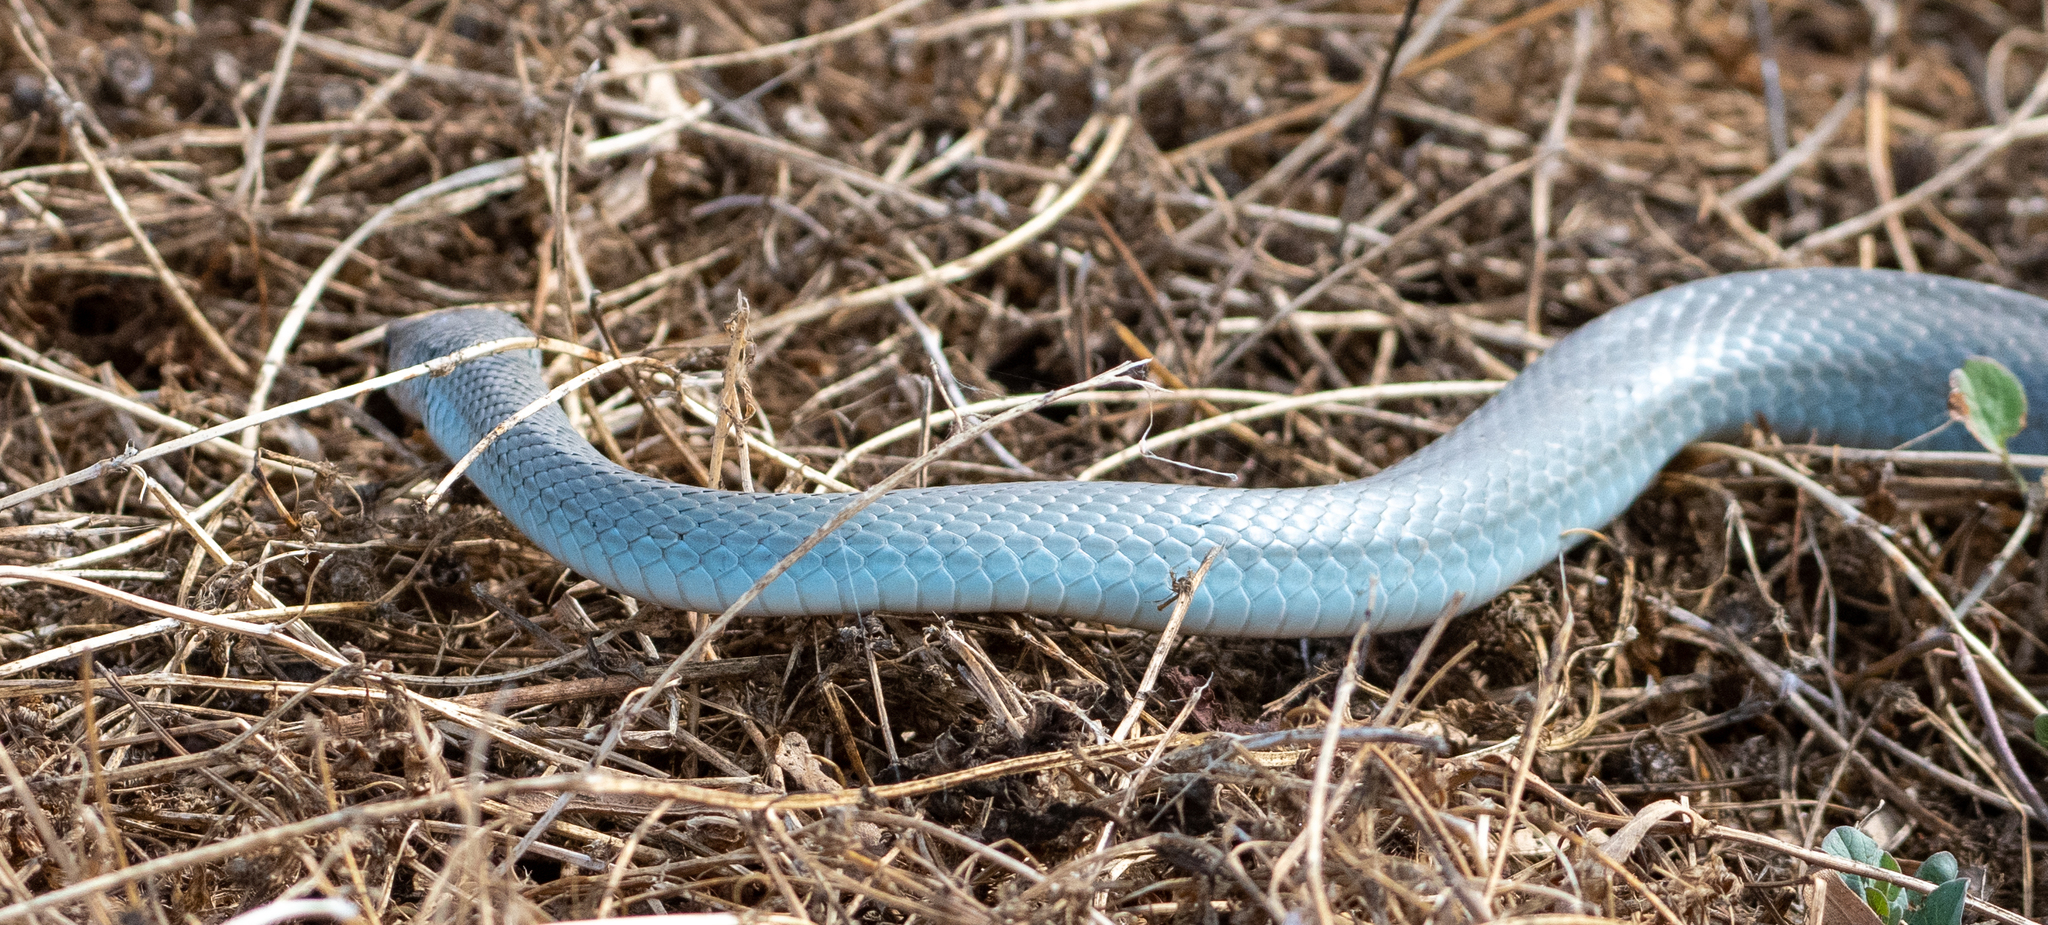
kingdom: Animalia
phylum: Chordata
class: Squamata
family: Colubridae
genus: Coluber
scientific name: Coluber constrictor
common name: Eastern racer
